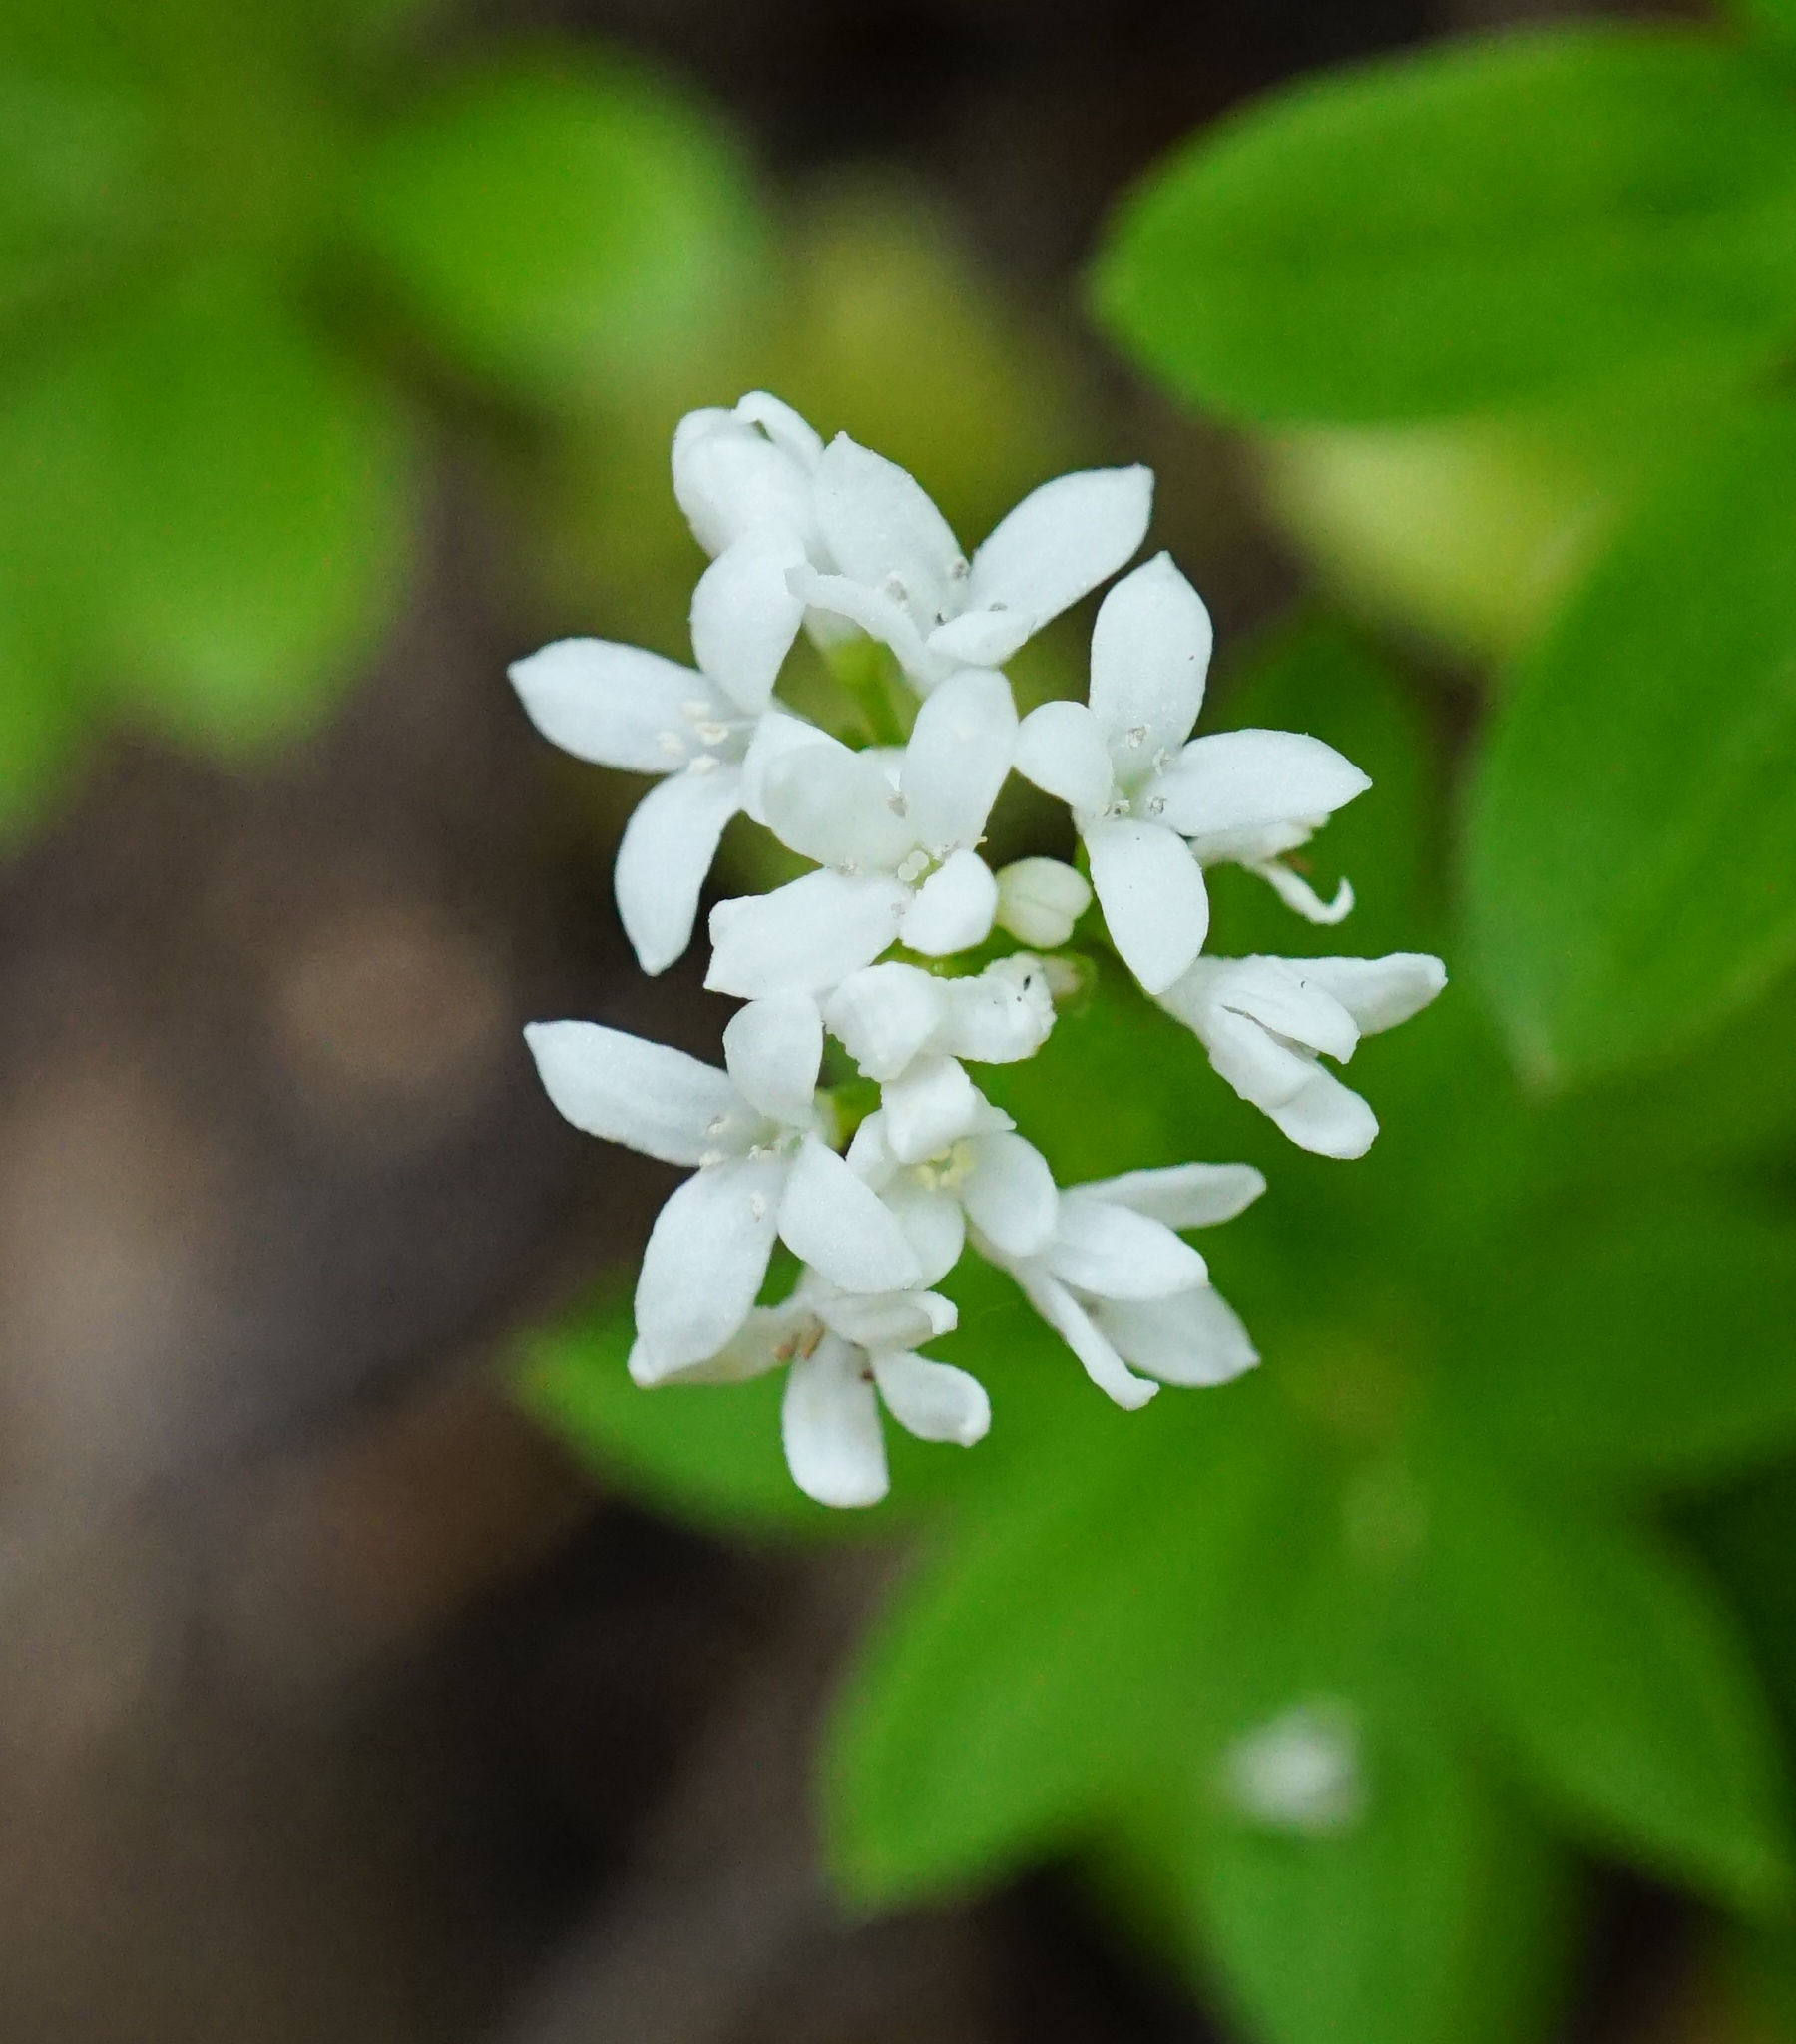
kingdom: Plantae
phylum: Tracheophyta
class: Magnoliopsida
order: Gentianales
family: Rubiaceae
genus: Galium
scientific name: Galium odoratum
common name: Sweet woodruff
